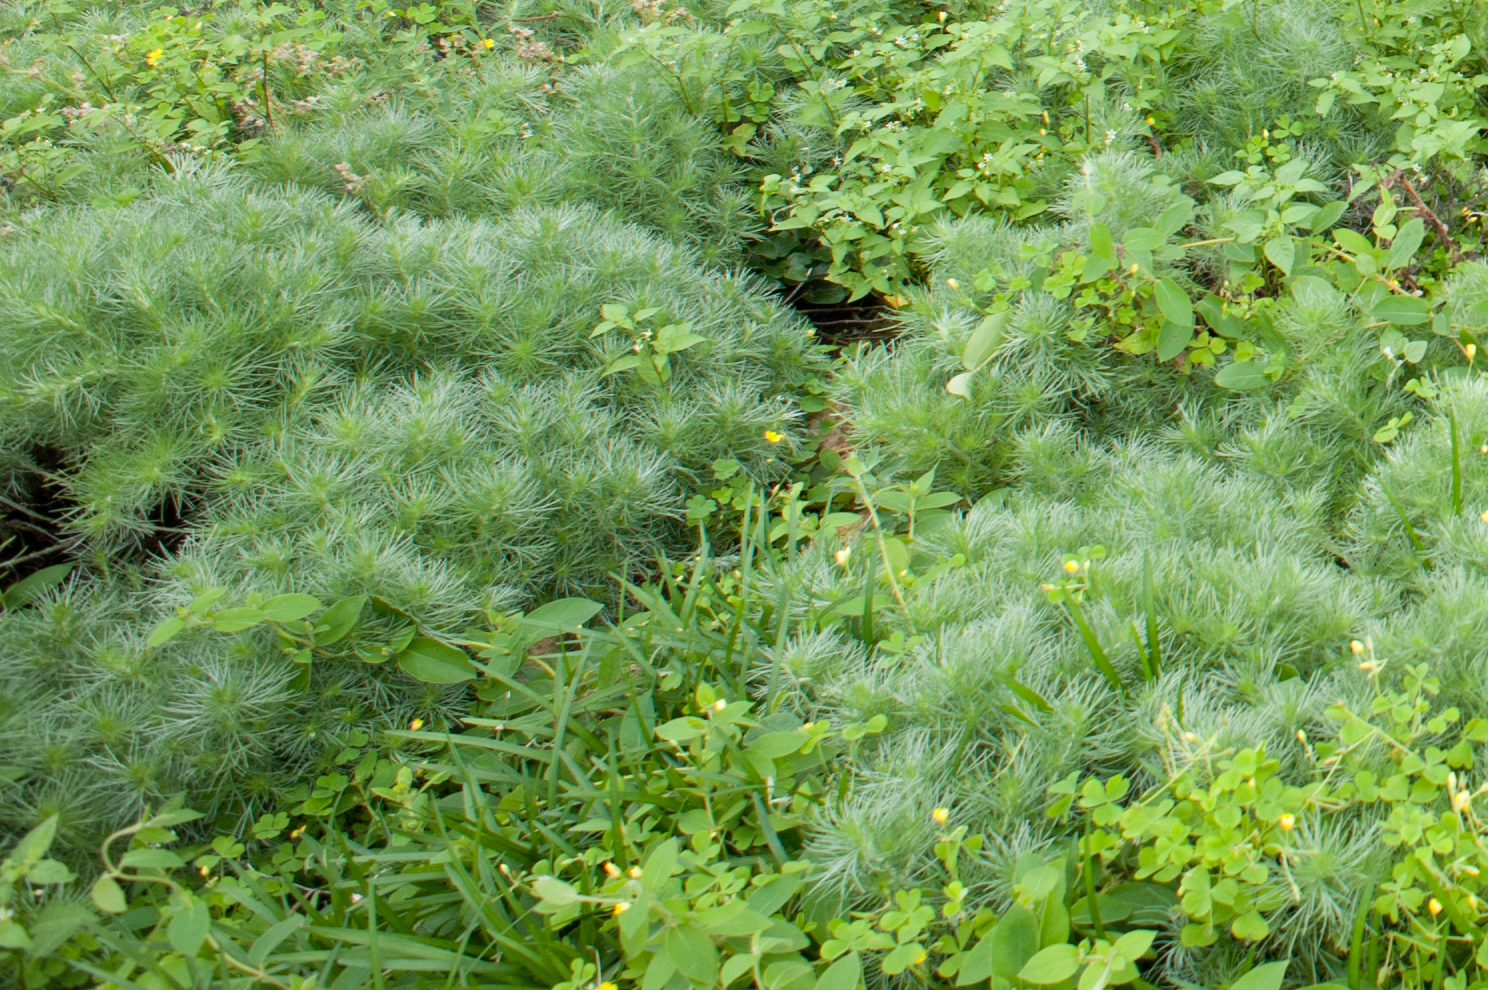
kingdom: Plantae
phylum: Tracheophyta
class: Magnoliopsida
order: Asterales
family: Asteraceae
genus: Artemisia
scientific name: Artemisia capillaris
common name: Yin-chen wormwood
